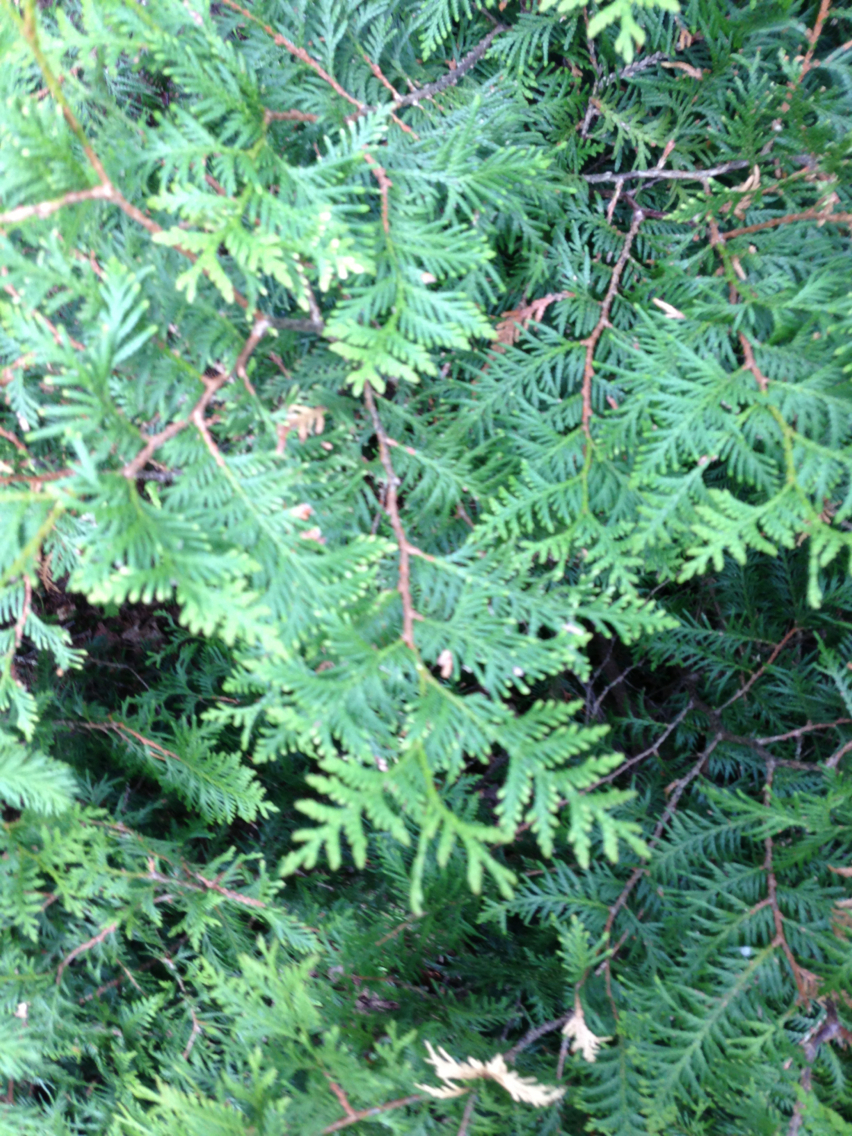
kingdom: Plantae
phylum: Tracheophyta
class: Pinopsida
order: Pinales
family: Cupressaceae
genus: Thuja
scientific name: Thuja occidentalis
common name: Northern white-cedar
